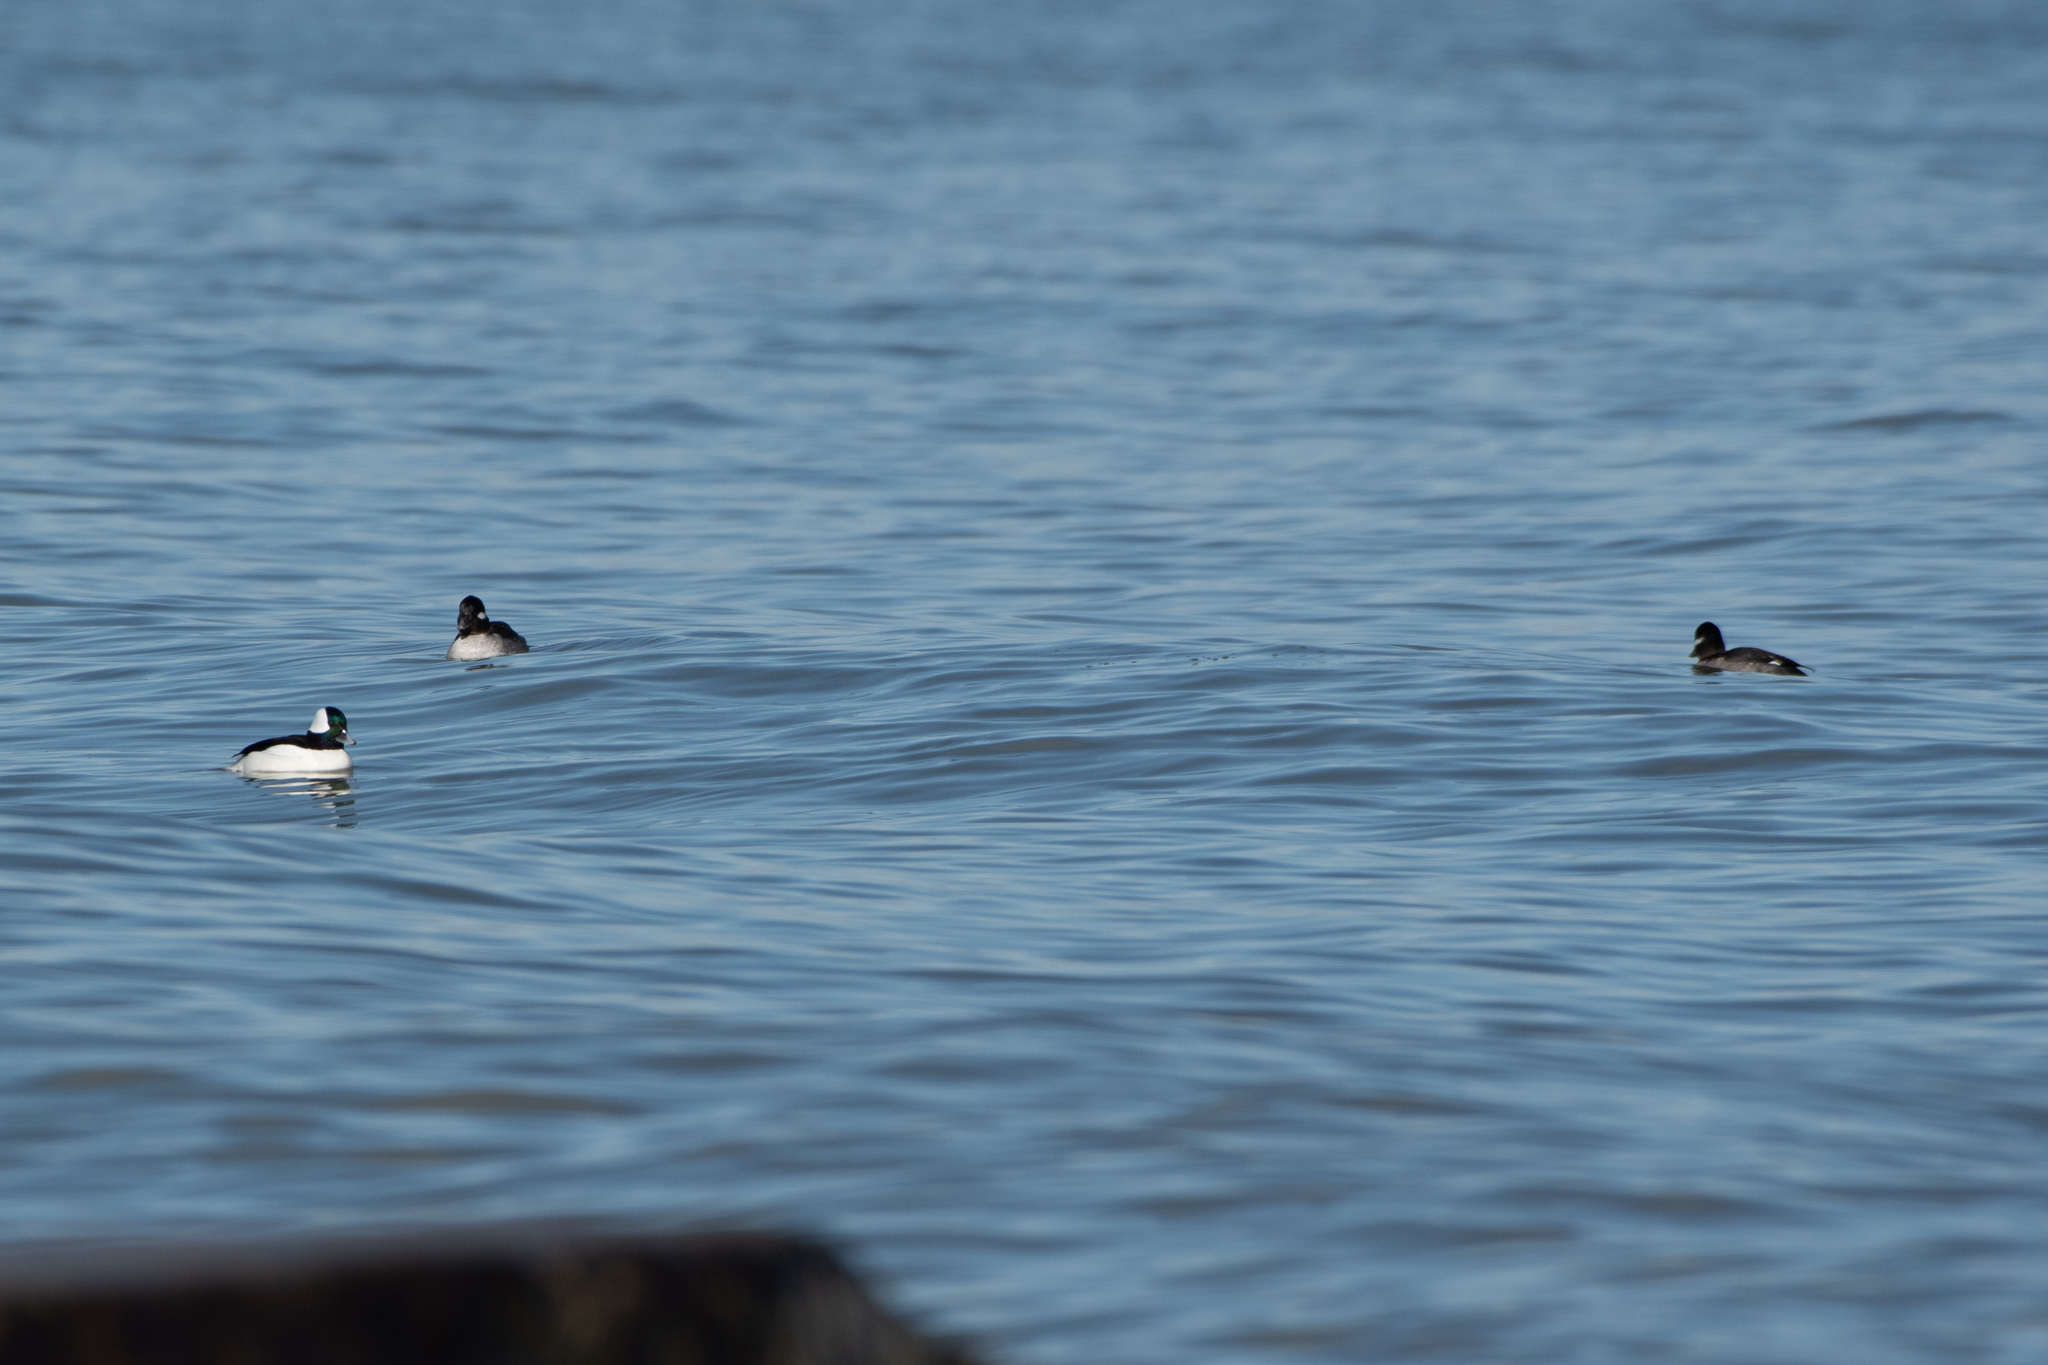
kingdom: Animalia
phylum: Chordata
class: Aves
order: Anseriformes
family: Anatidae
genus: Bucephala
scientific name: Bucephala albeola
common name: Bufflehead
